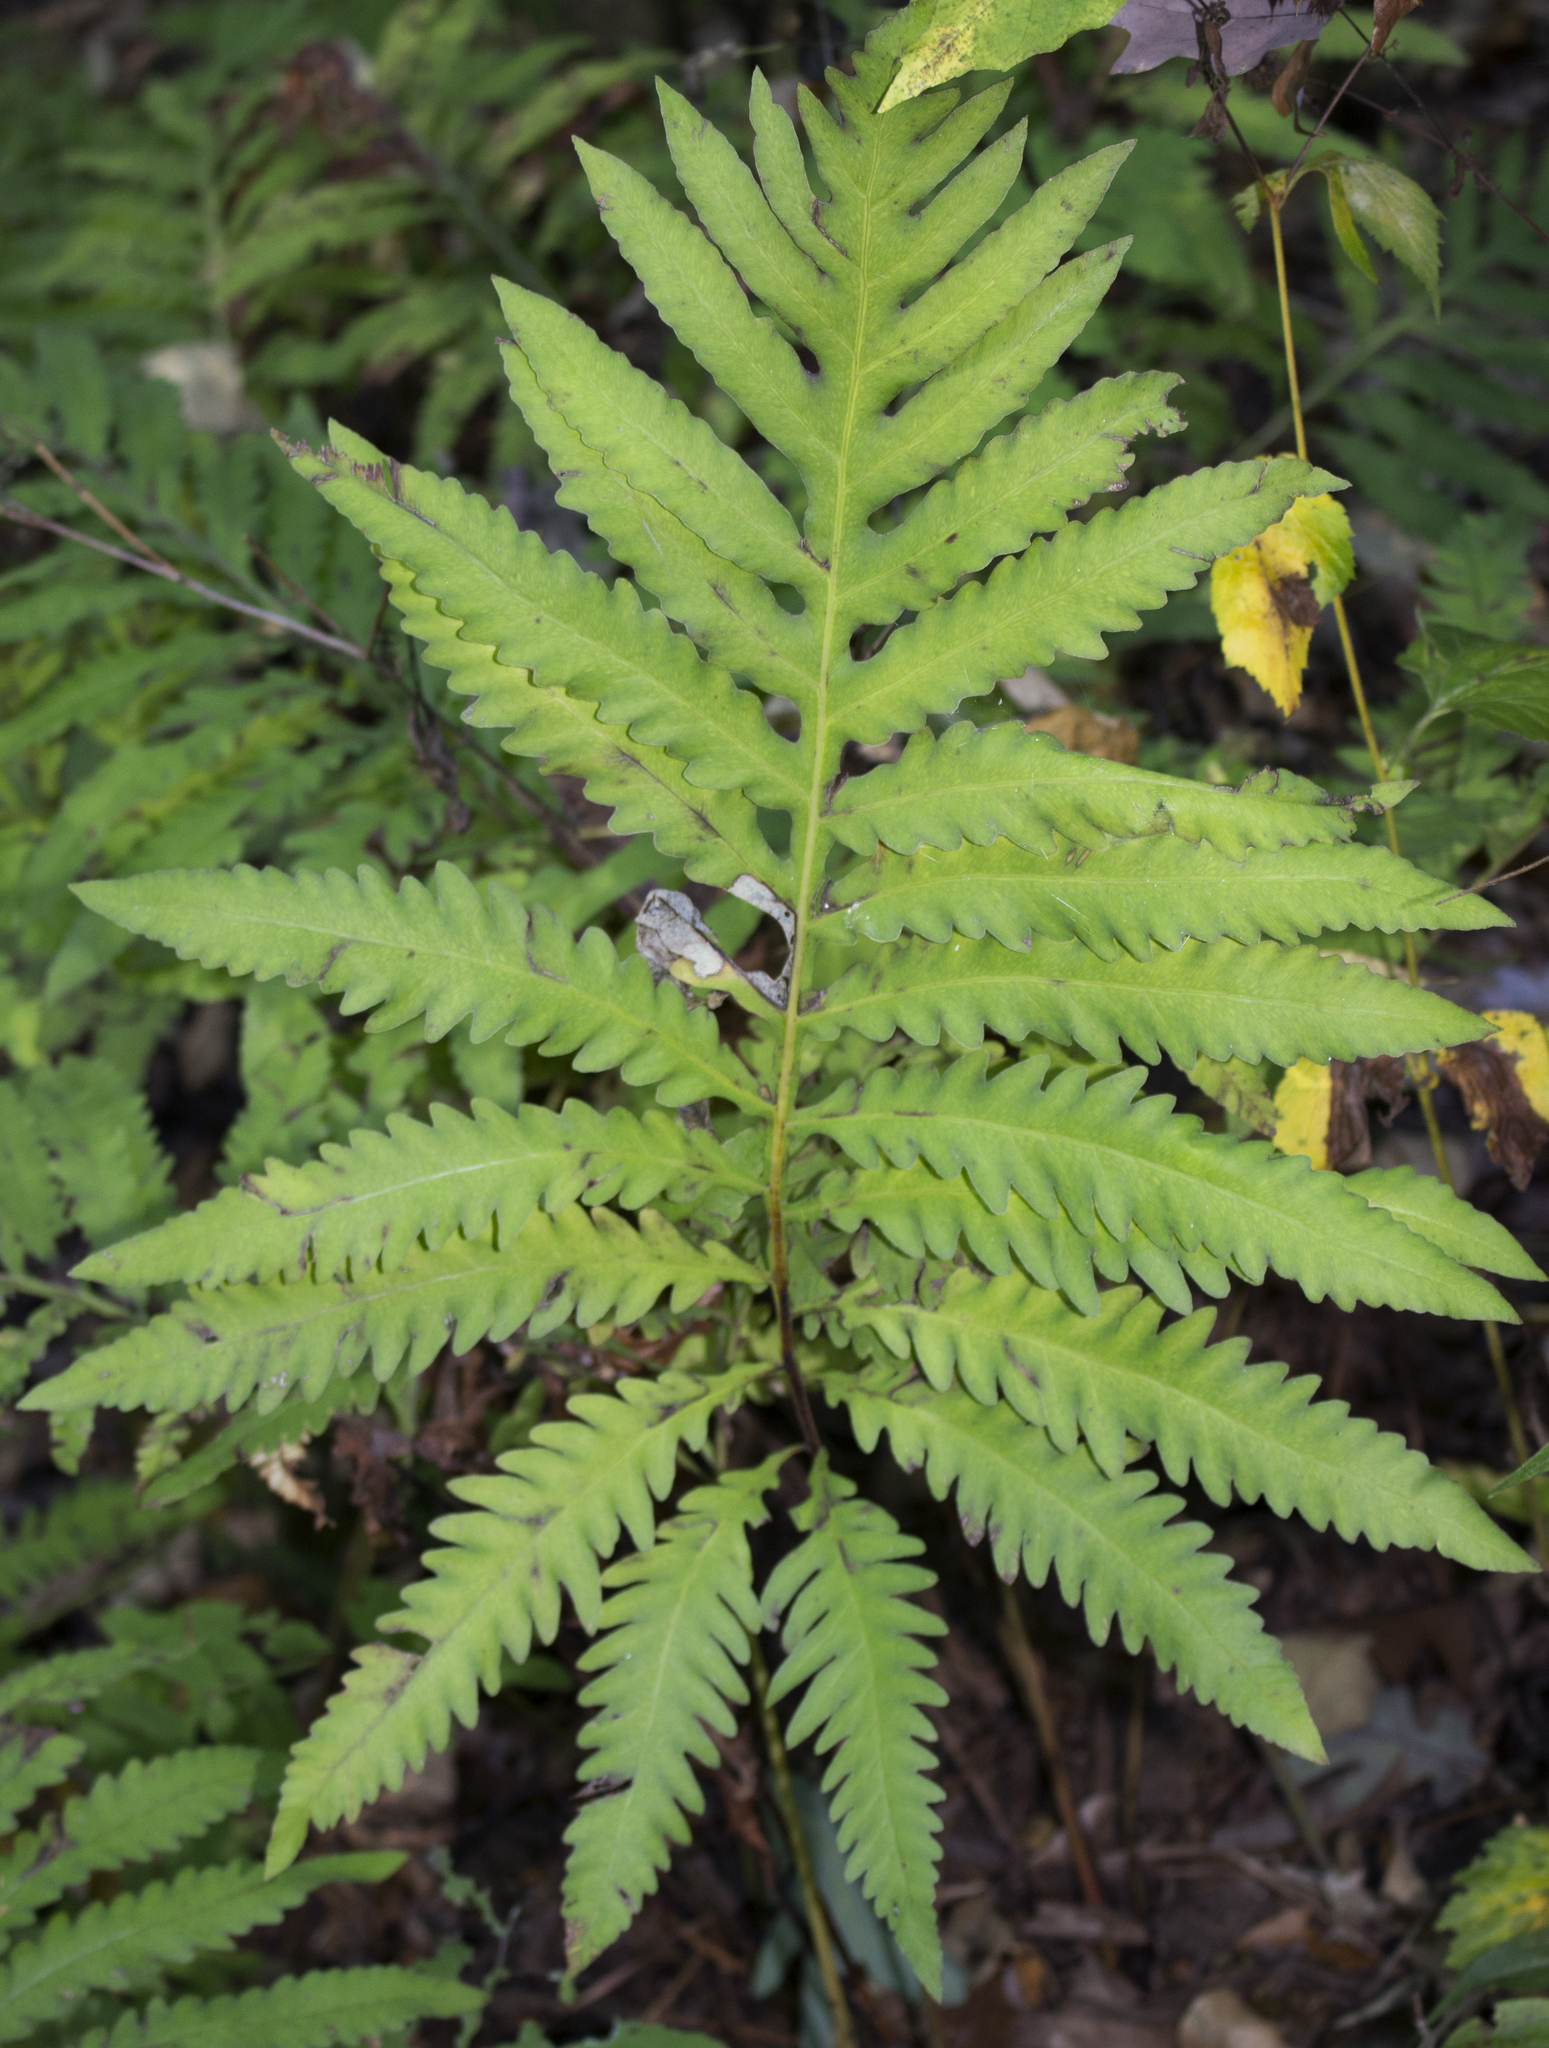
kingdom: Plantae
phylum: Tracheophyta
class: Polypodiopsida
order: Polypodiales
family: Onocleaceae
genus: Onoclea
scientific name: Onoclea sensibilis
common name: Sensitive fern
